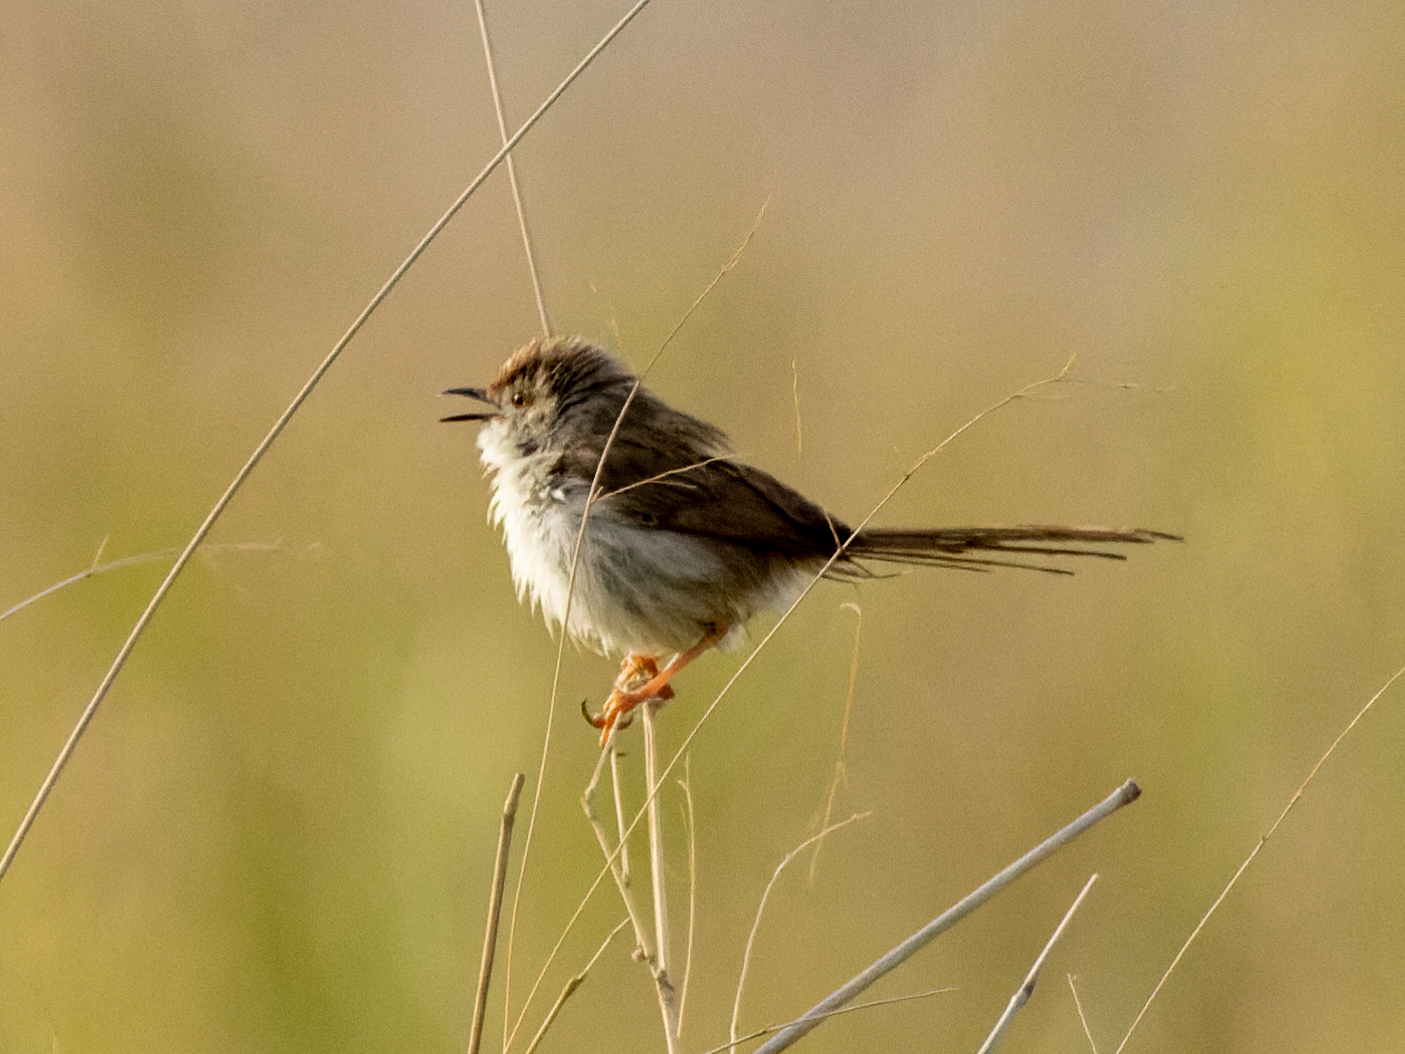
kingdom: Animalia
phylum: Chordata
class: Aves
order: Passeriformes
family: Cisticolidae
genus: Prinia
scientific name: Prinia gracilis
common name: Graceful prinia
